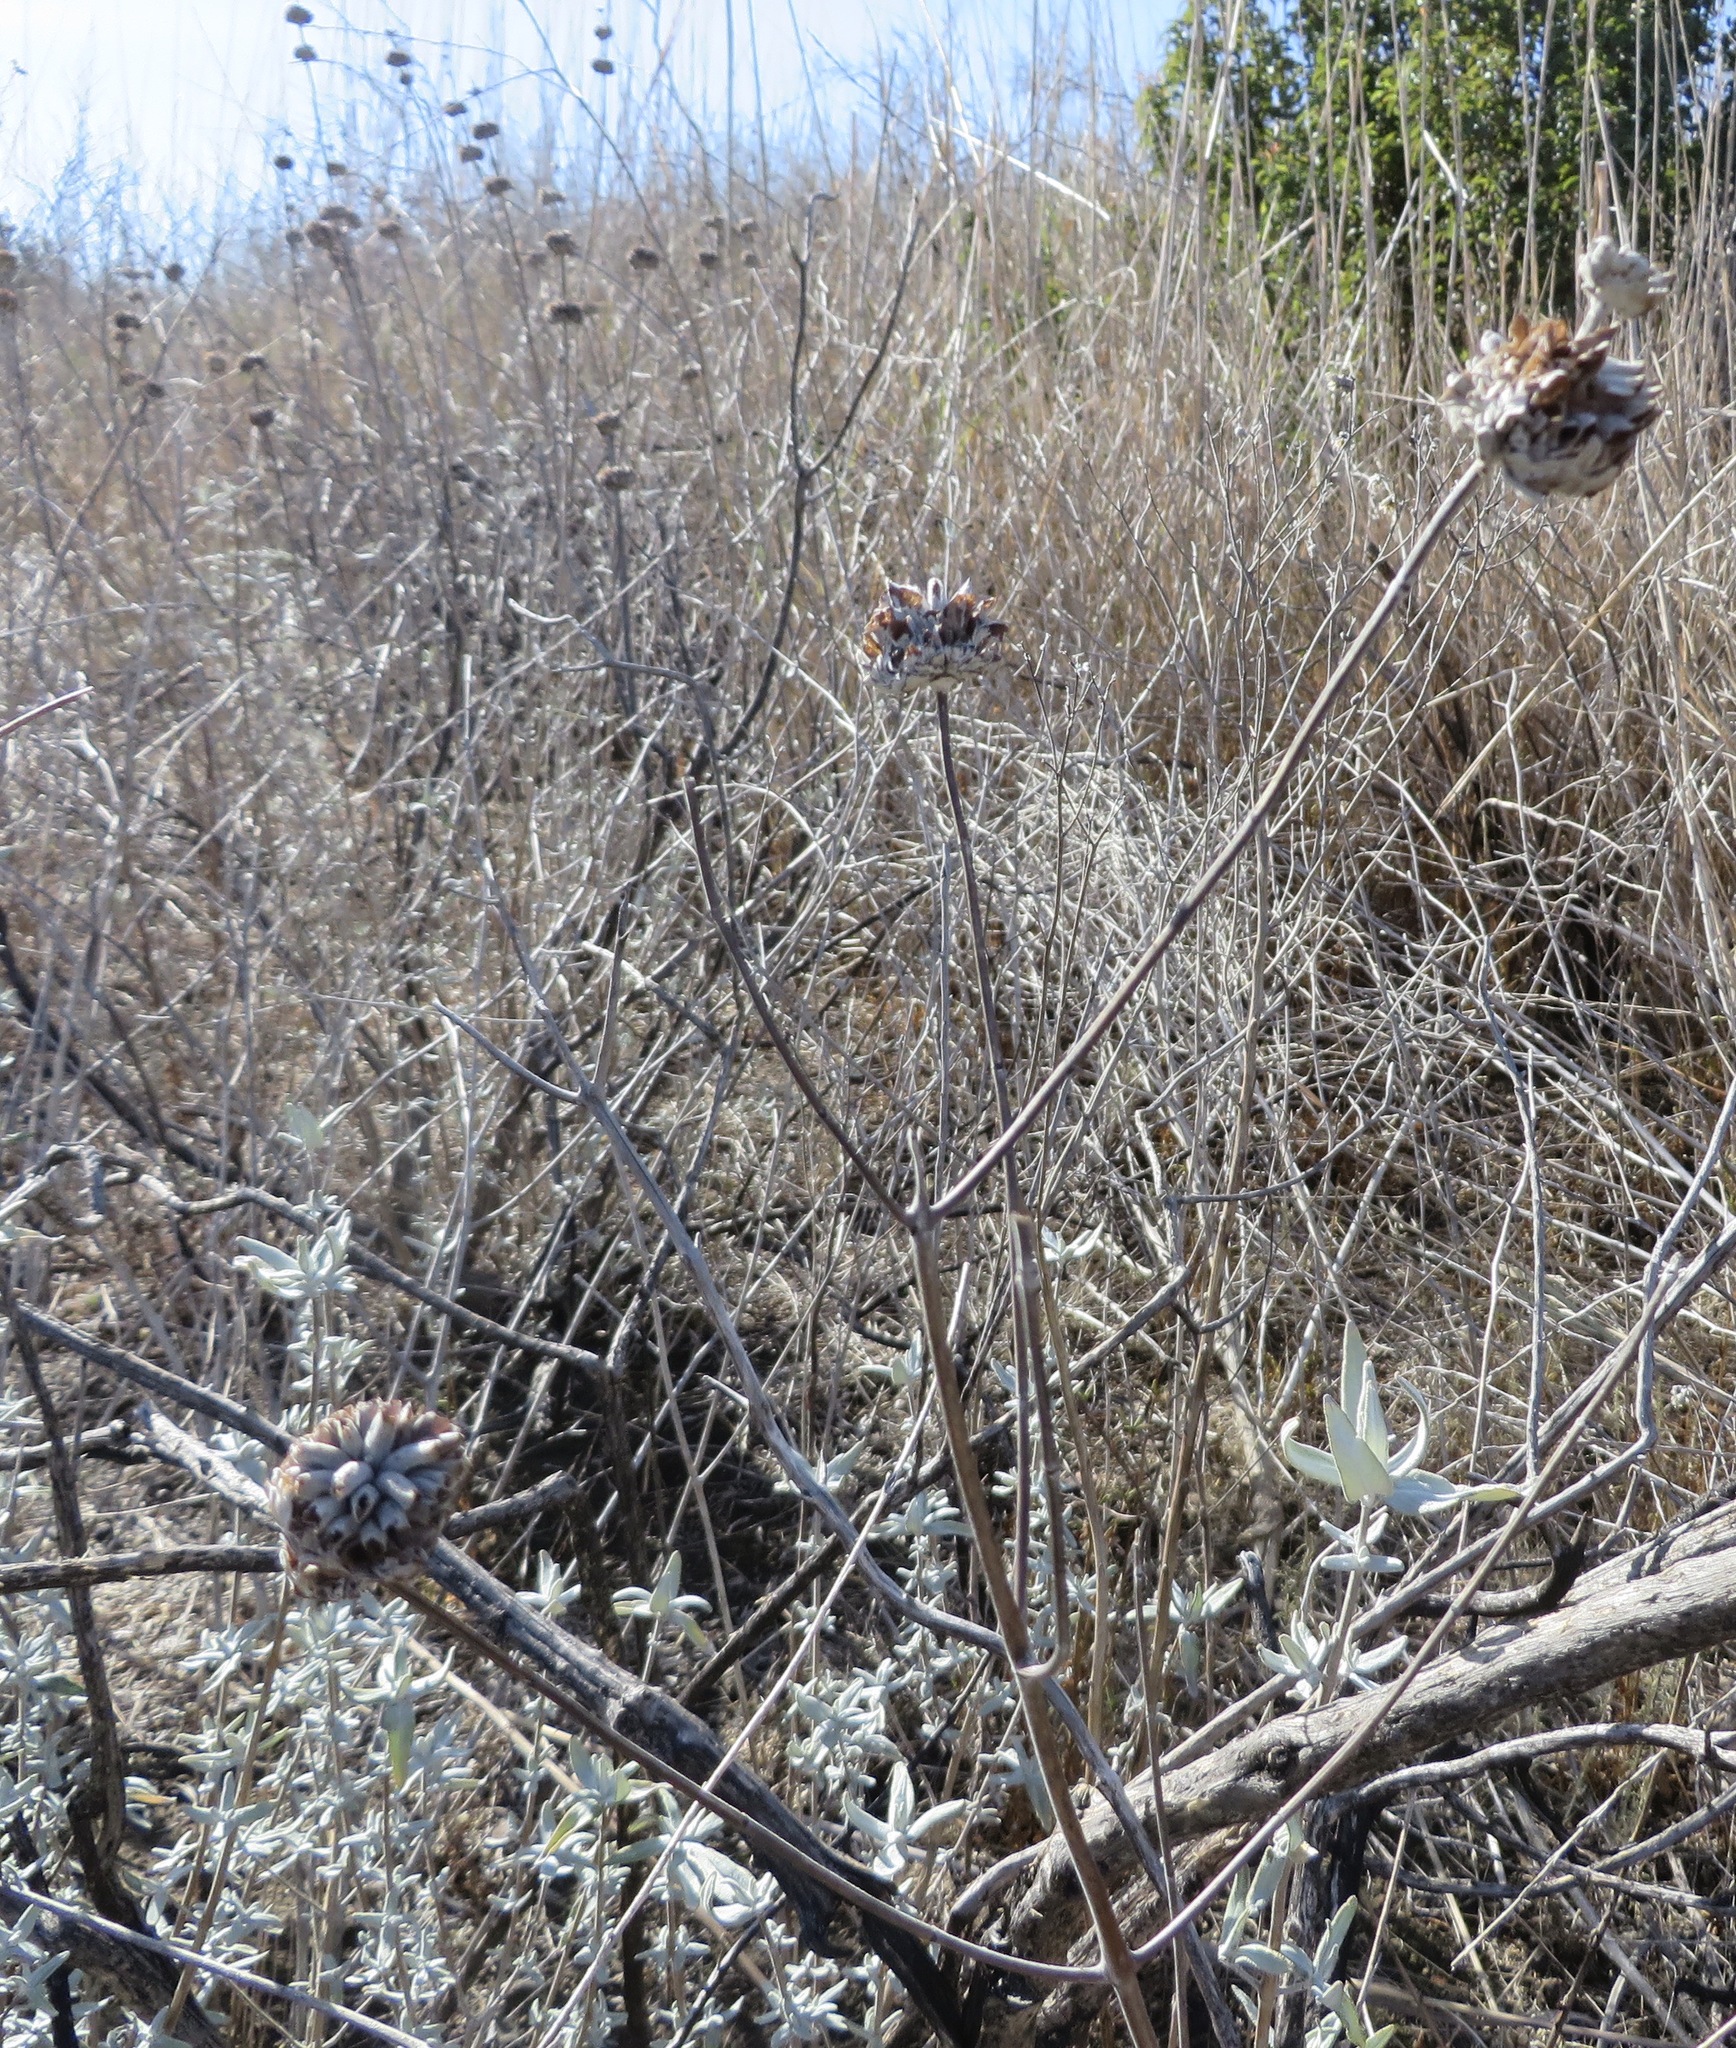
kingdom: Plantae
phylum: Tracheophyta
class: Magnoliopsida
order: Lamiales
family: Lamiaceae
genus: Salvia
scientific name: Salvia leucophylla
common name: Purple sage
